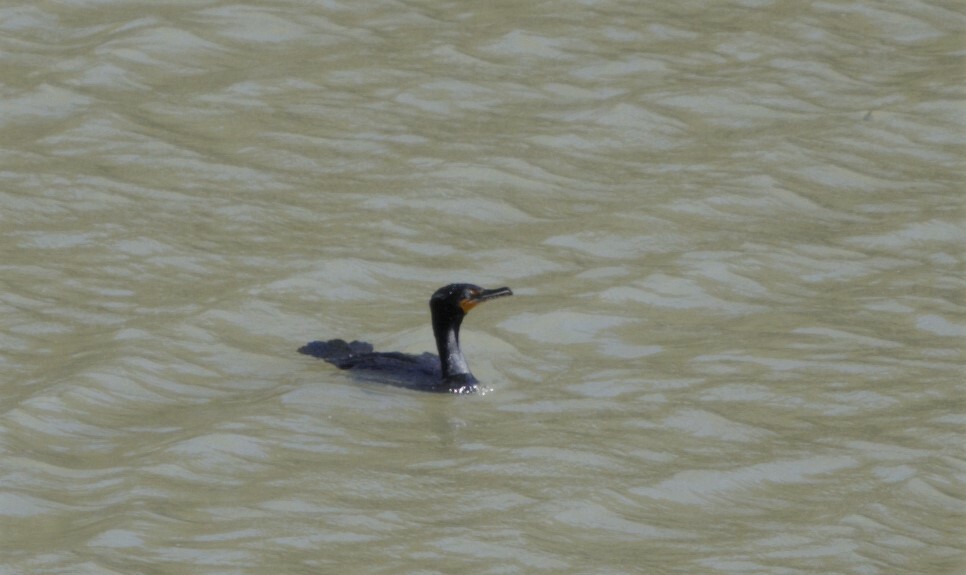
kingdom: Animalia
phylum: Chordata
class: Aves
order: Suliformes
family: Phalacrocoracidae
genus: Phalacrocorax
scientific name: Phalacrocorax auritus
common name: Double-crested cormorant
